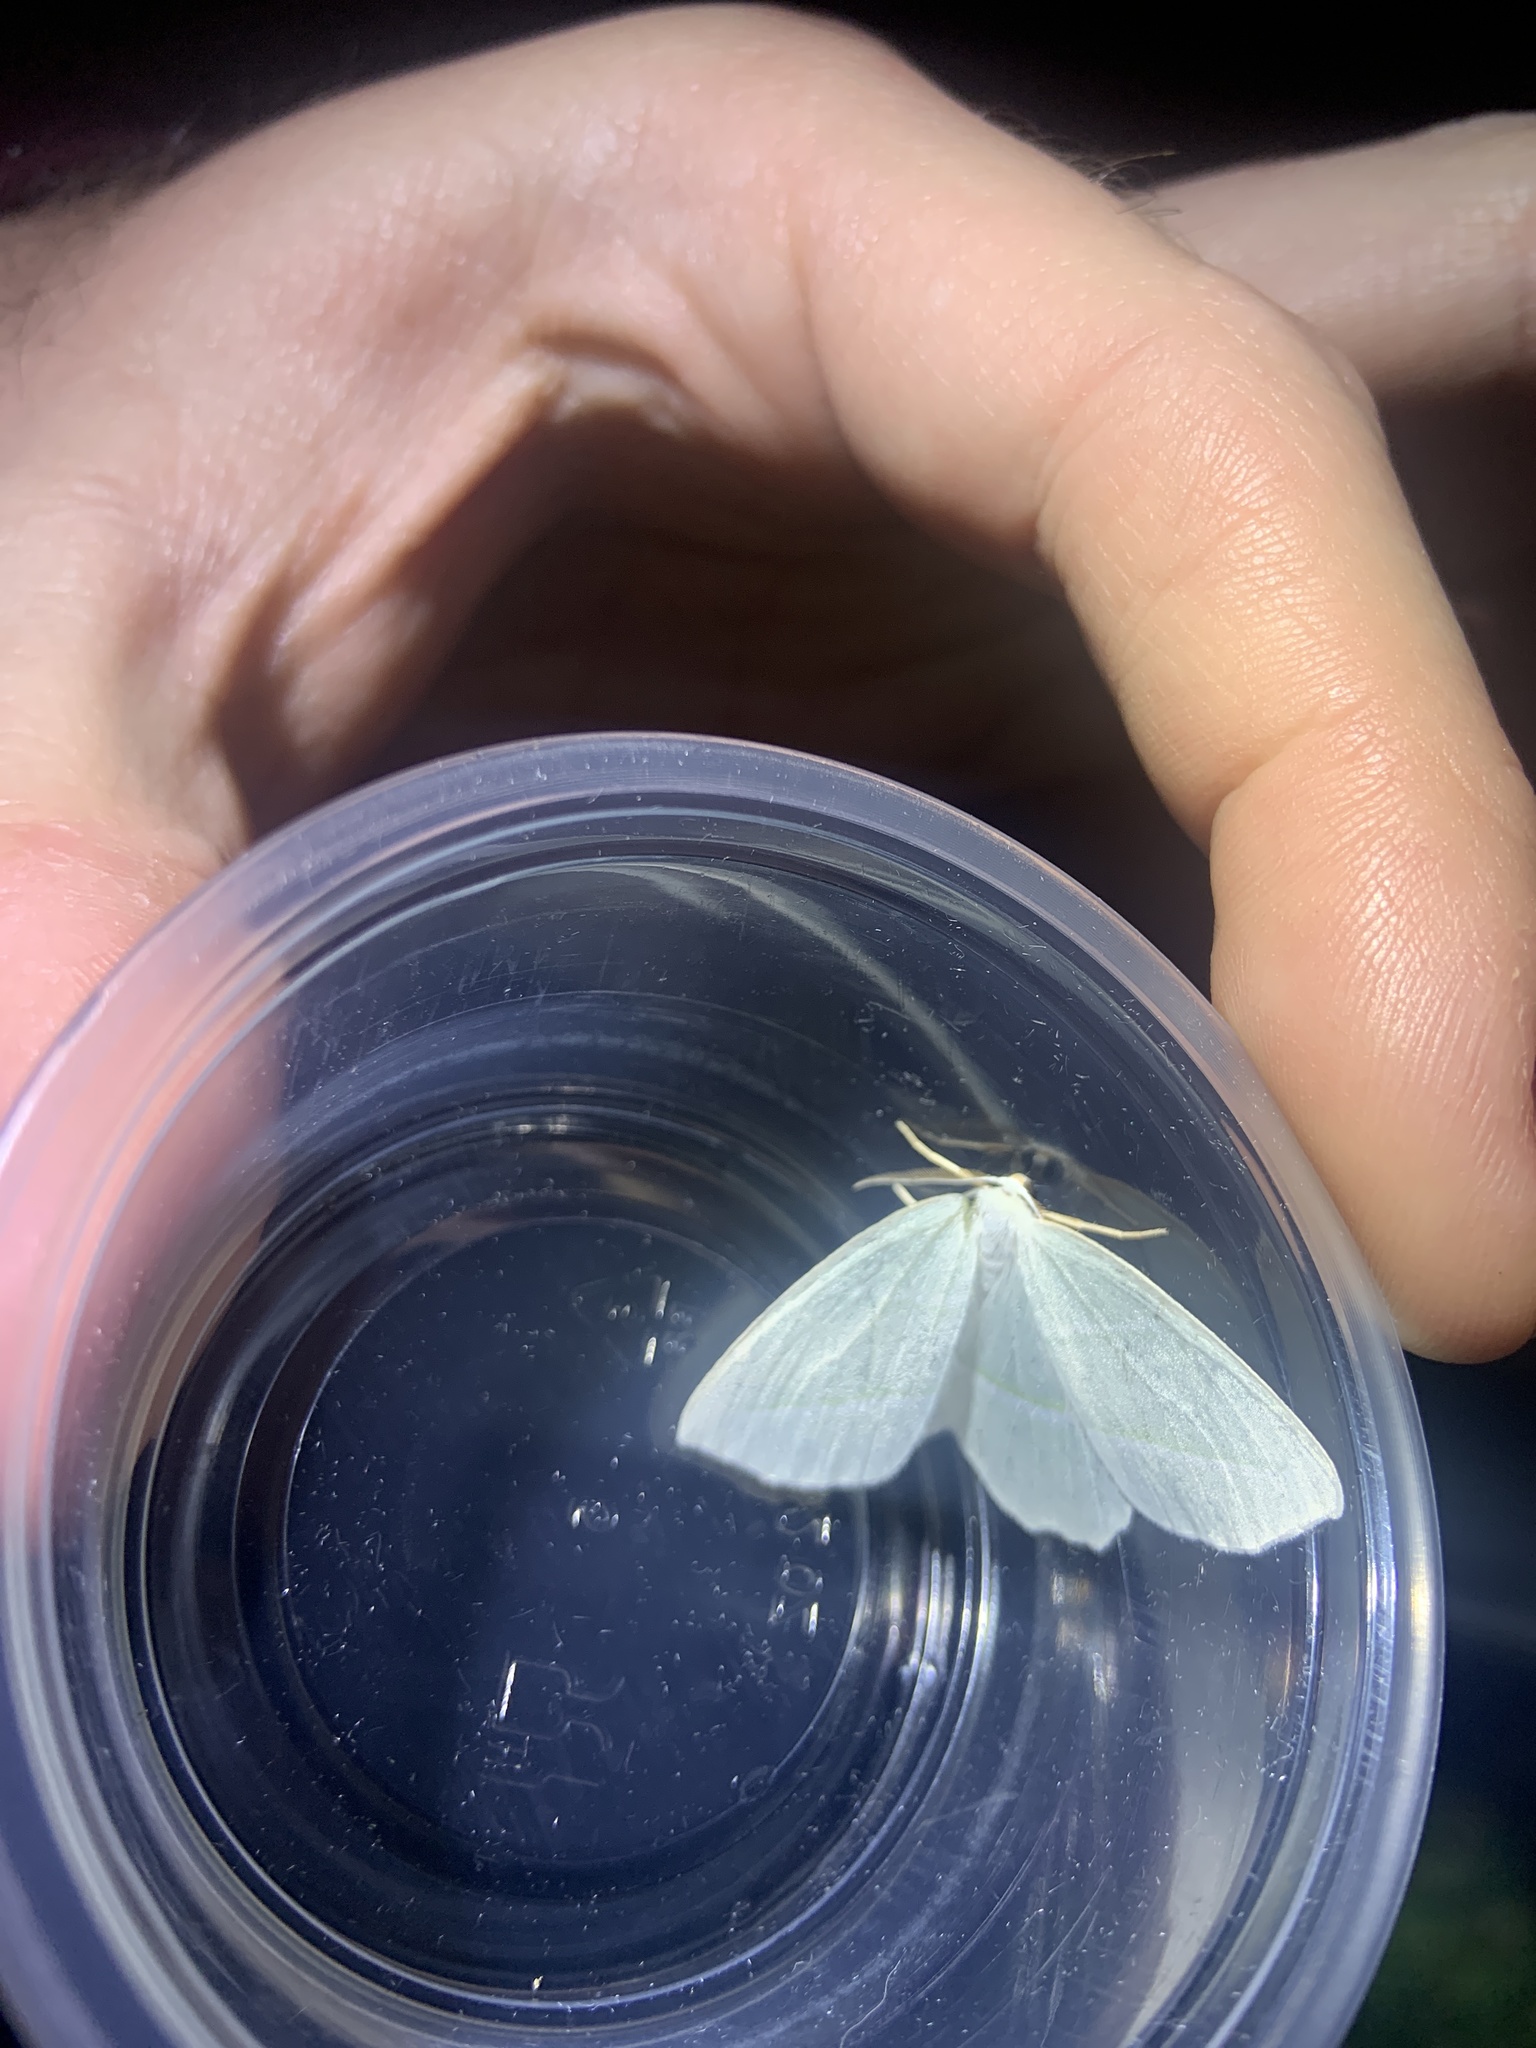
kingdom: Animalia
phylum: Arthropoda
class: Insecta
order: Lepidoptera
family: Geometridae
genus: Campaea
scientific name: Campaea perlata
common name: Fringed looper
